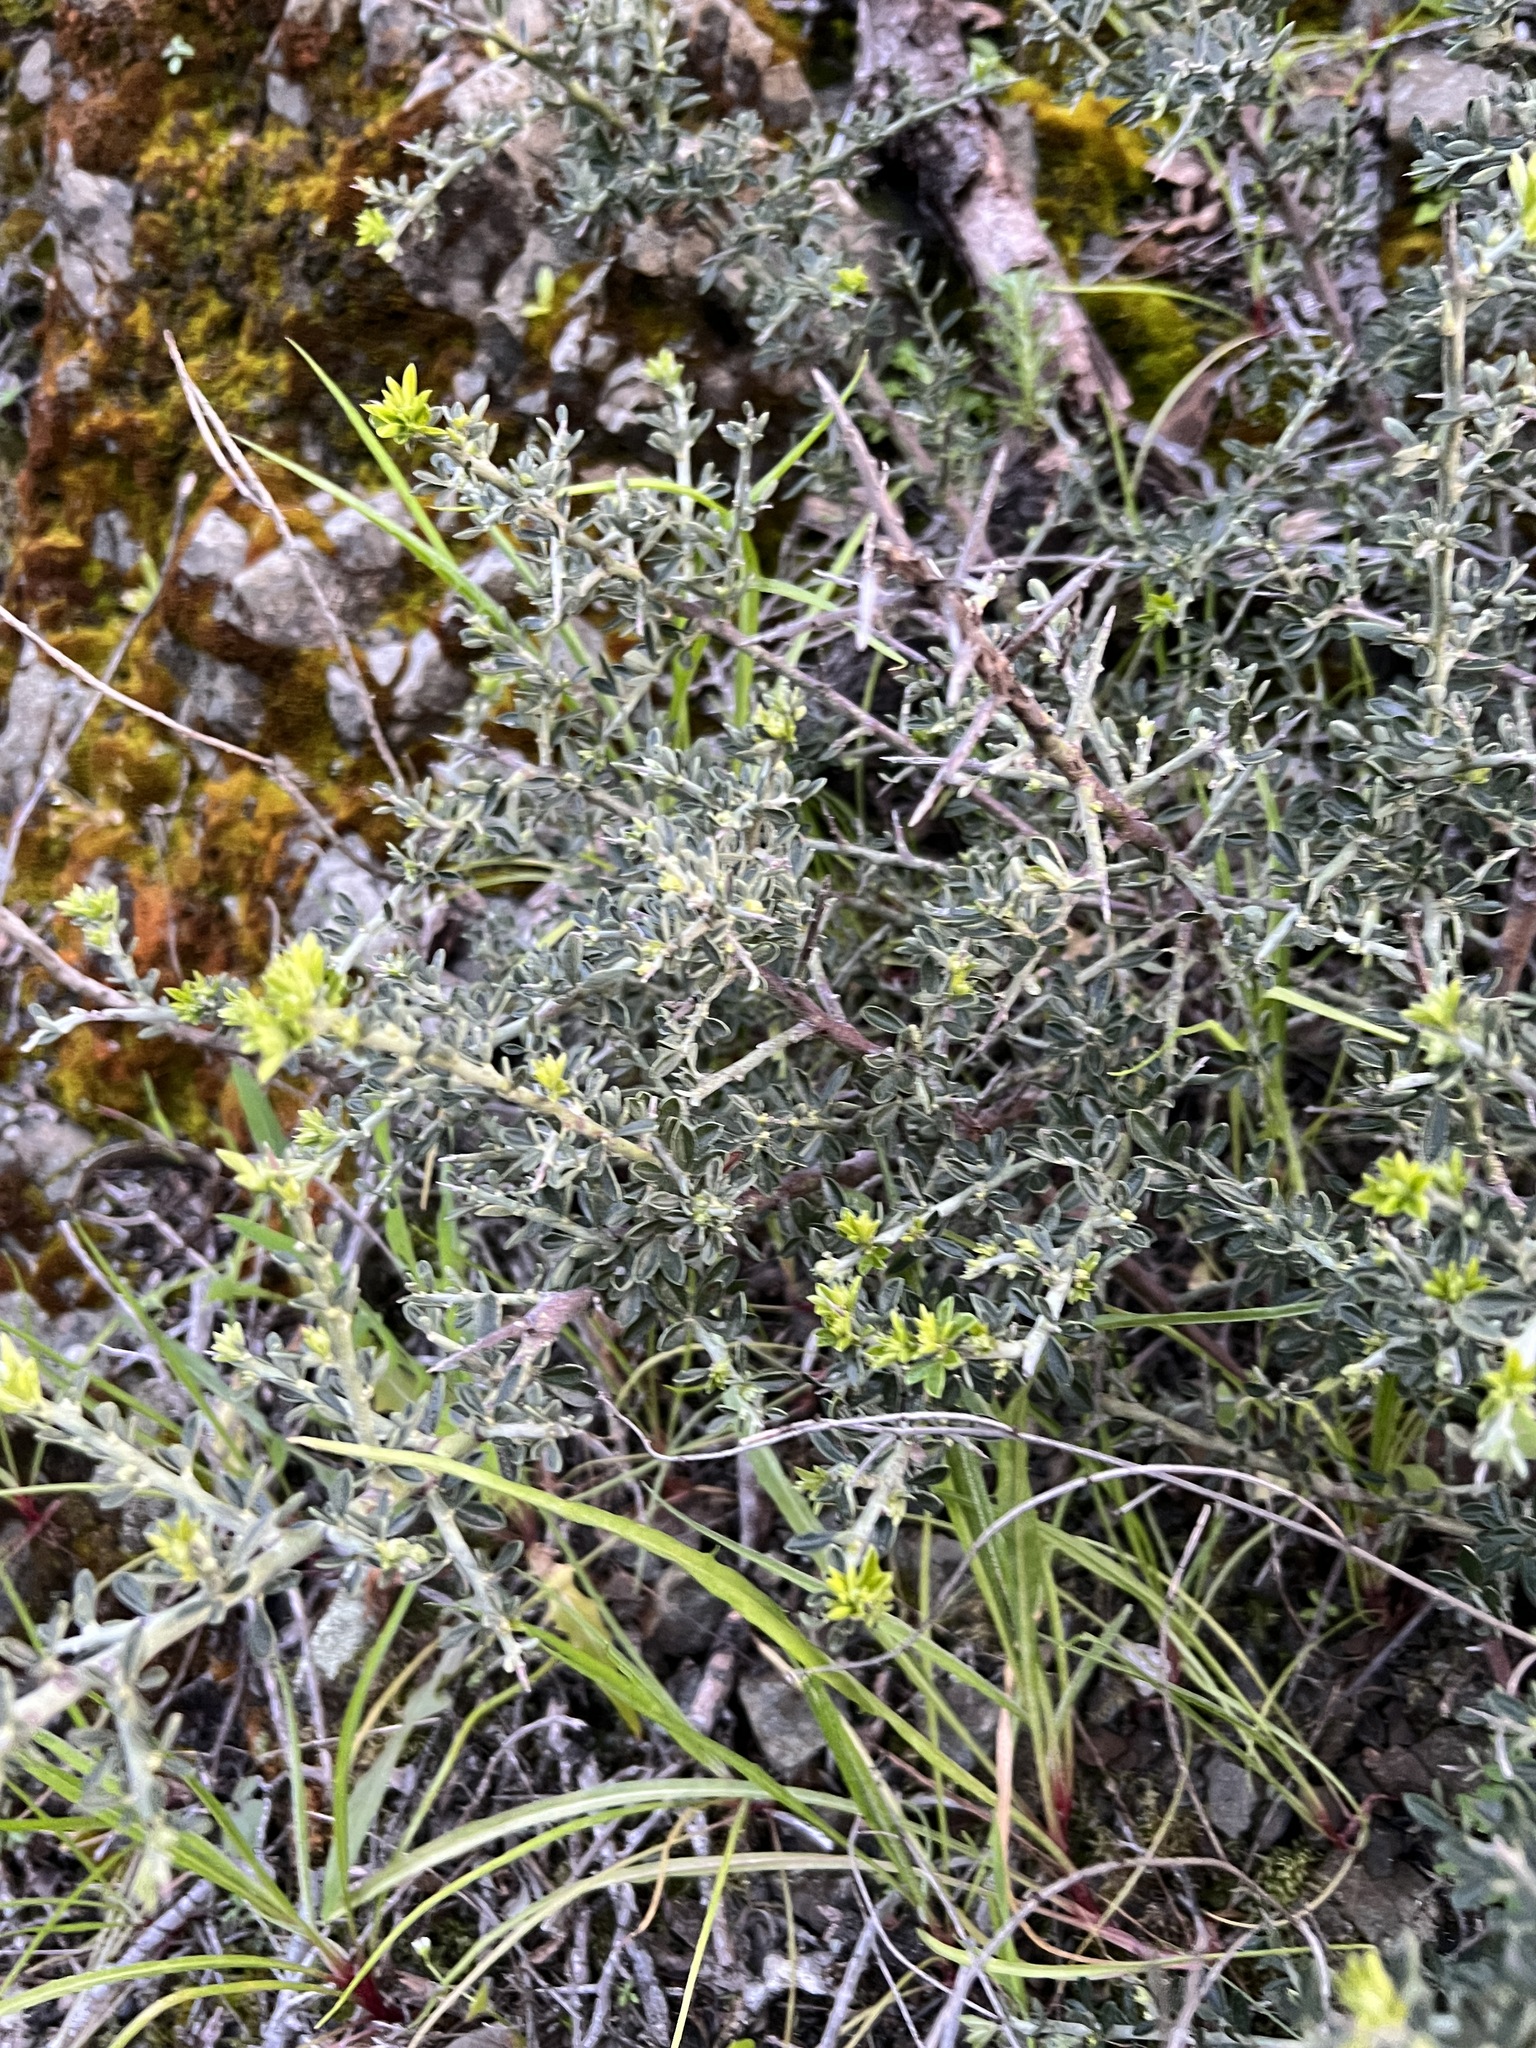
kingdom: Plantae
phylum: Tracheophyta
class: Magnoliopsida
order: Fabales
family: Fabaceae
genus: Pickeringia
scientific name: Pickeringia montana
